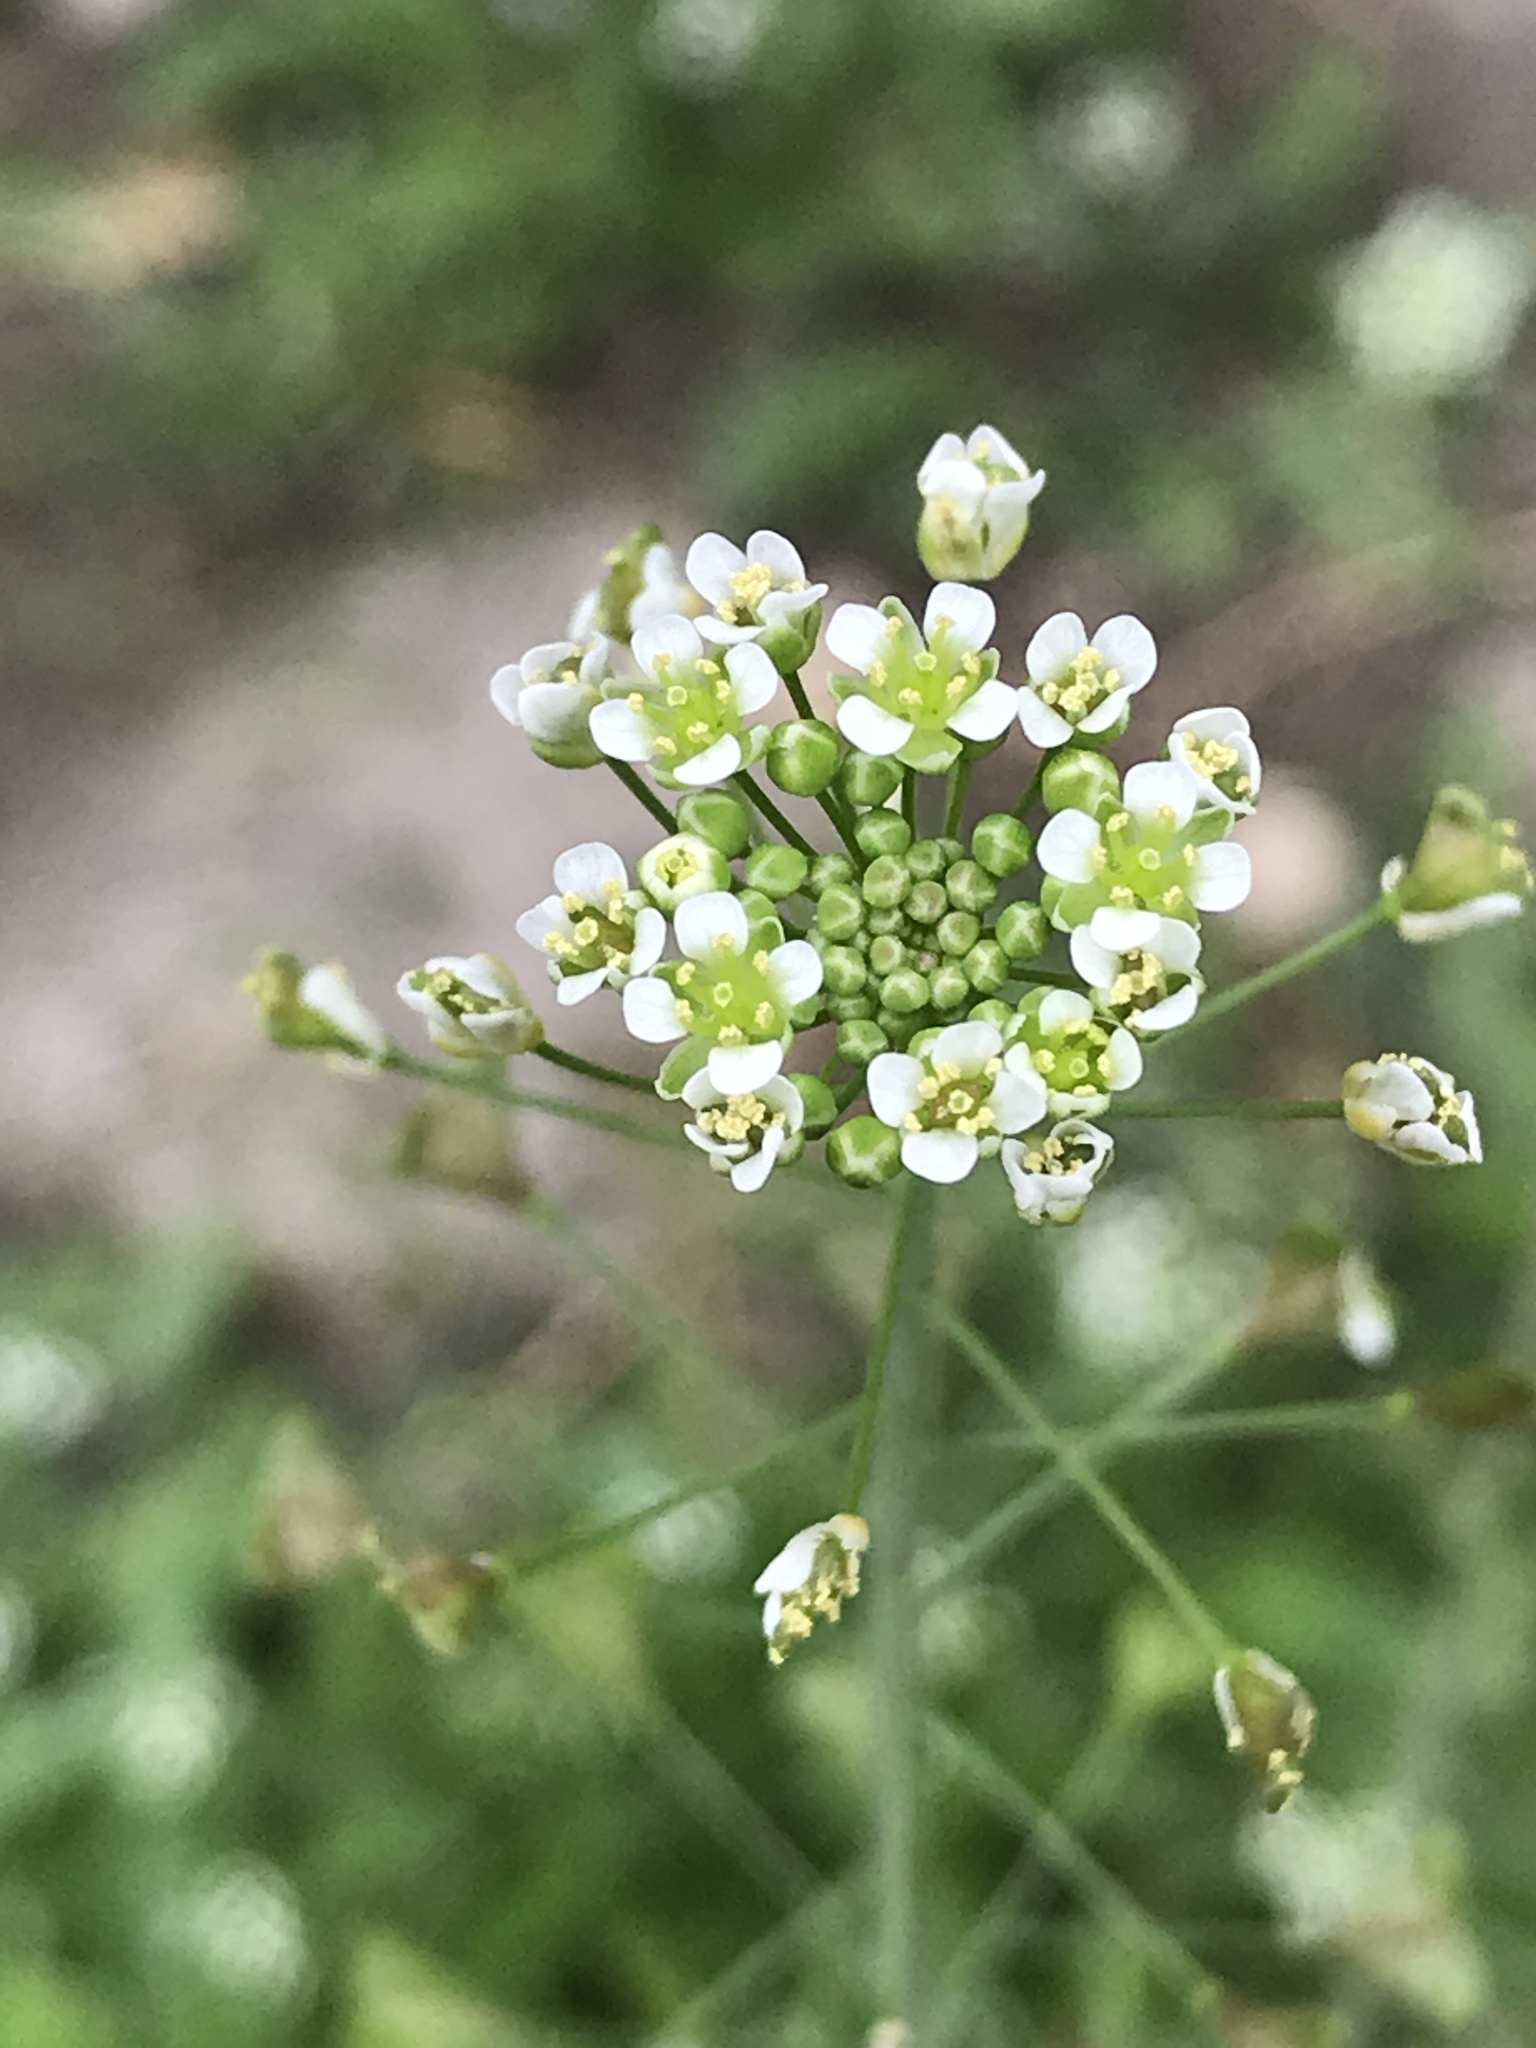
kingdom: Plantae
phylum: Tracheophyta
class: Magnoliopsida
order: Brassicales
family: Brassicaceae
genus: Capsella
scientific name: Capsella bursa-pastoris
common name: Shepherd's purse
